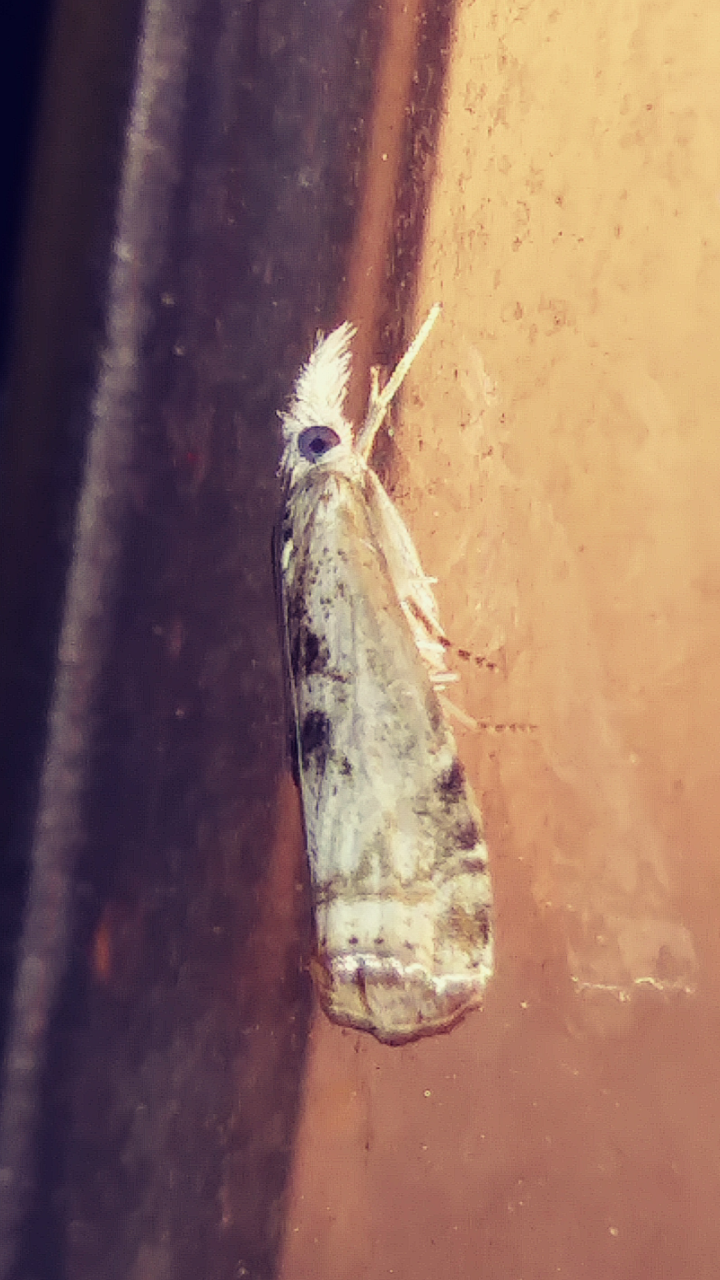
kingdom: Animalia
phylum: Arthropoda
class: Insecta
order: Lepidoptera
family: Crambidae
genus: Microcrambus
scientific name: Microcrambus immunellus
